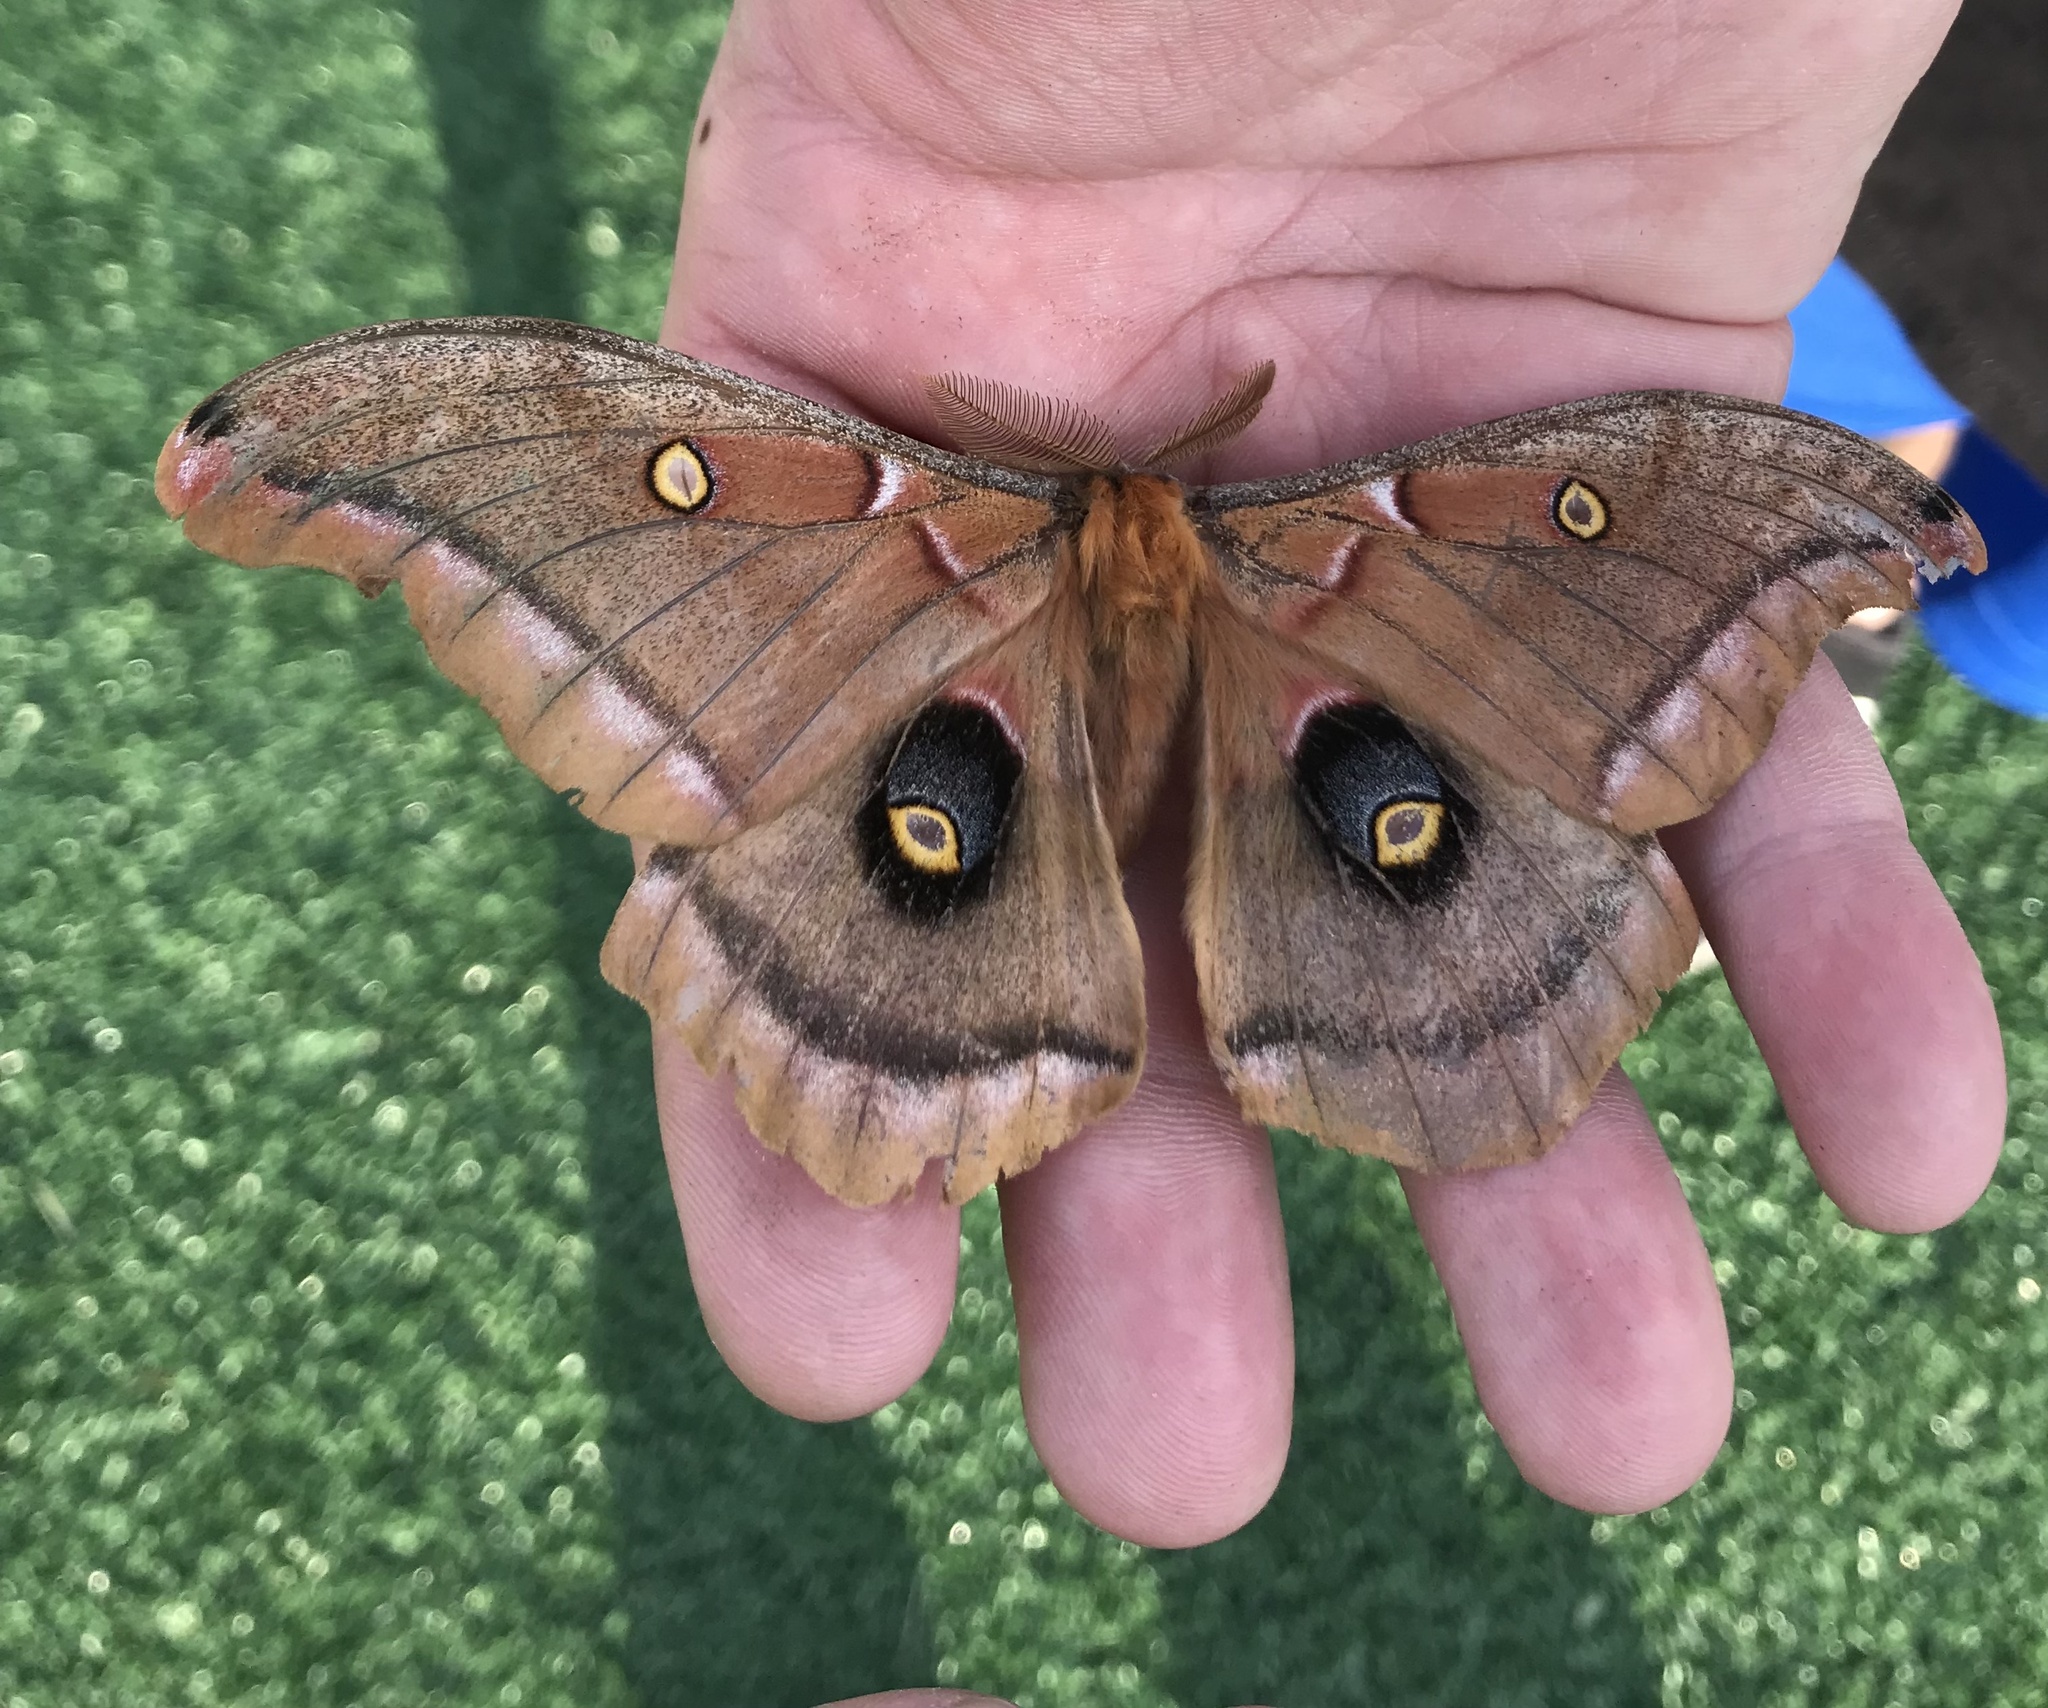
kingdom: Animalia
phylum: Arthropoda
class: Insecta
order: Lepidoptera
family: Saturniidae
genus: Antheraea
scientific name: Antheraea polyphemus
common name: Polyphemus moth
